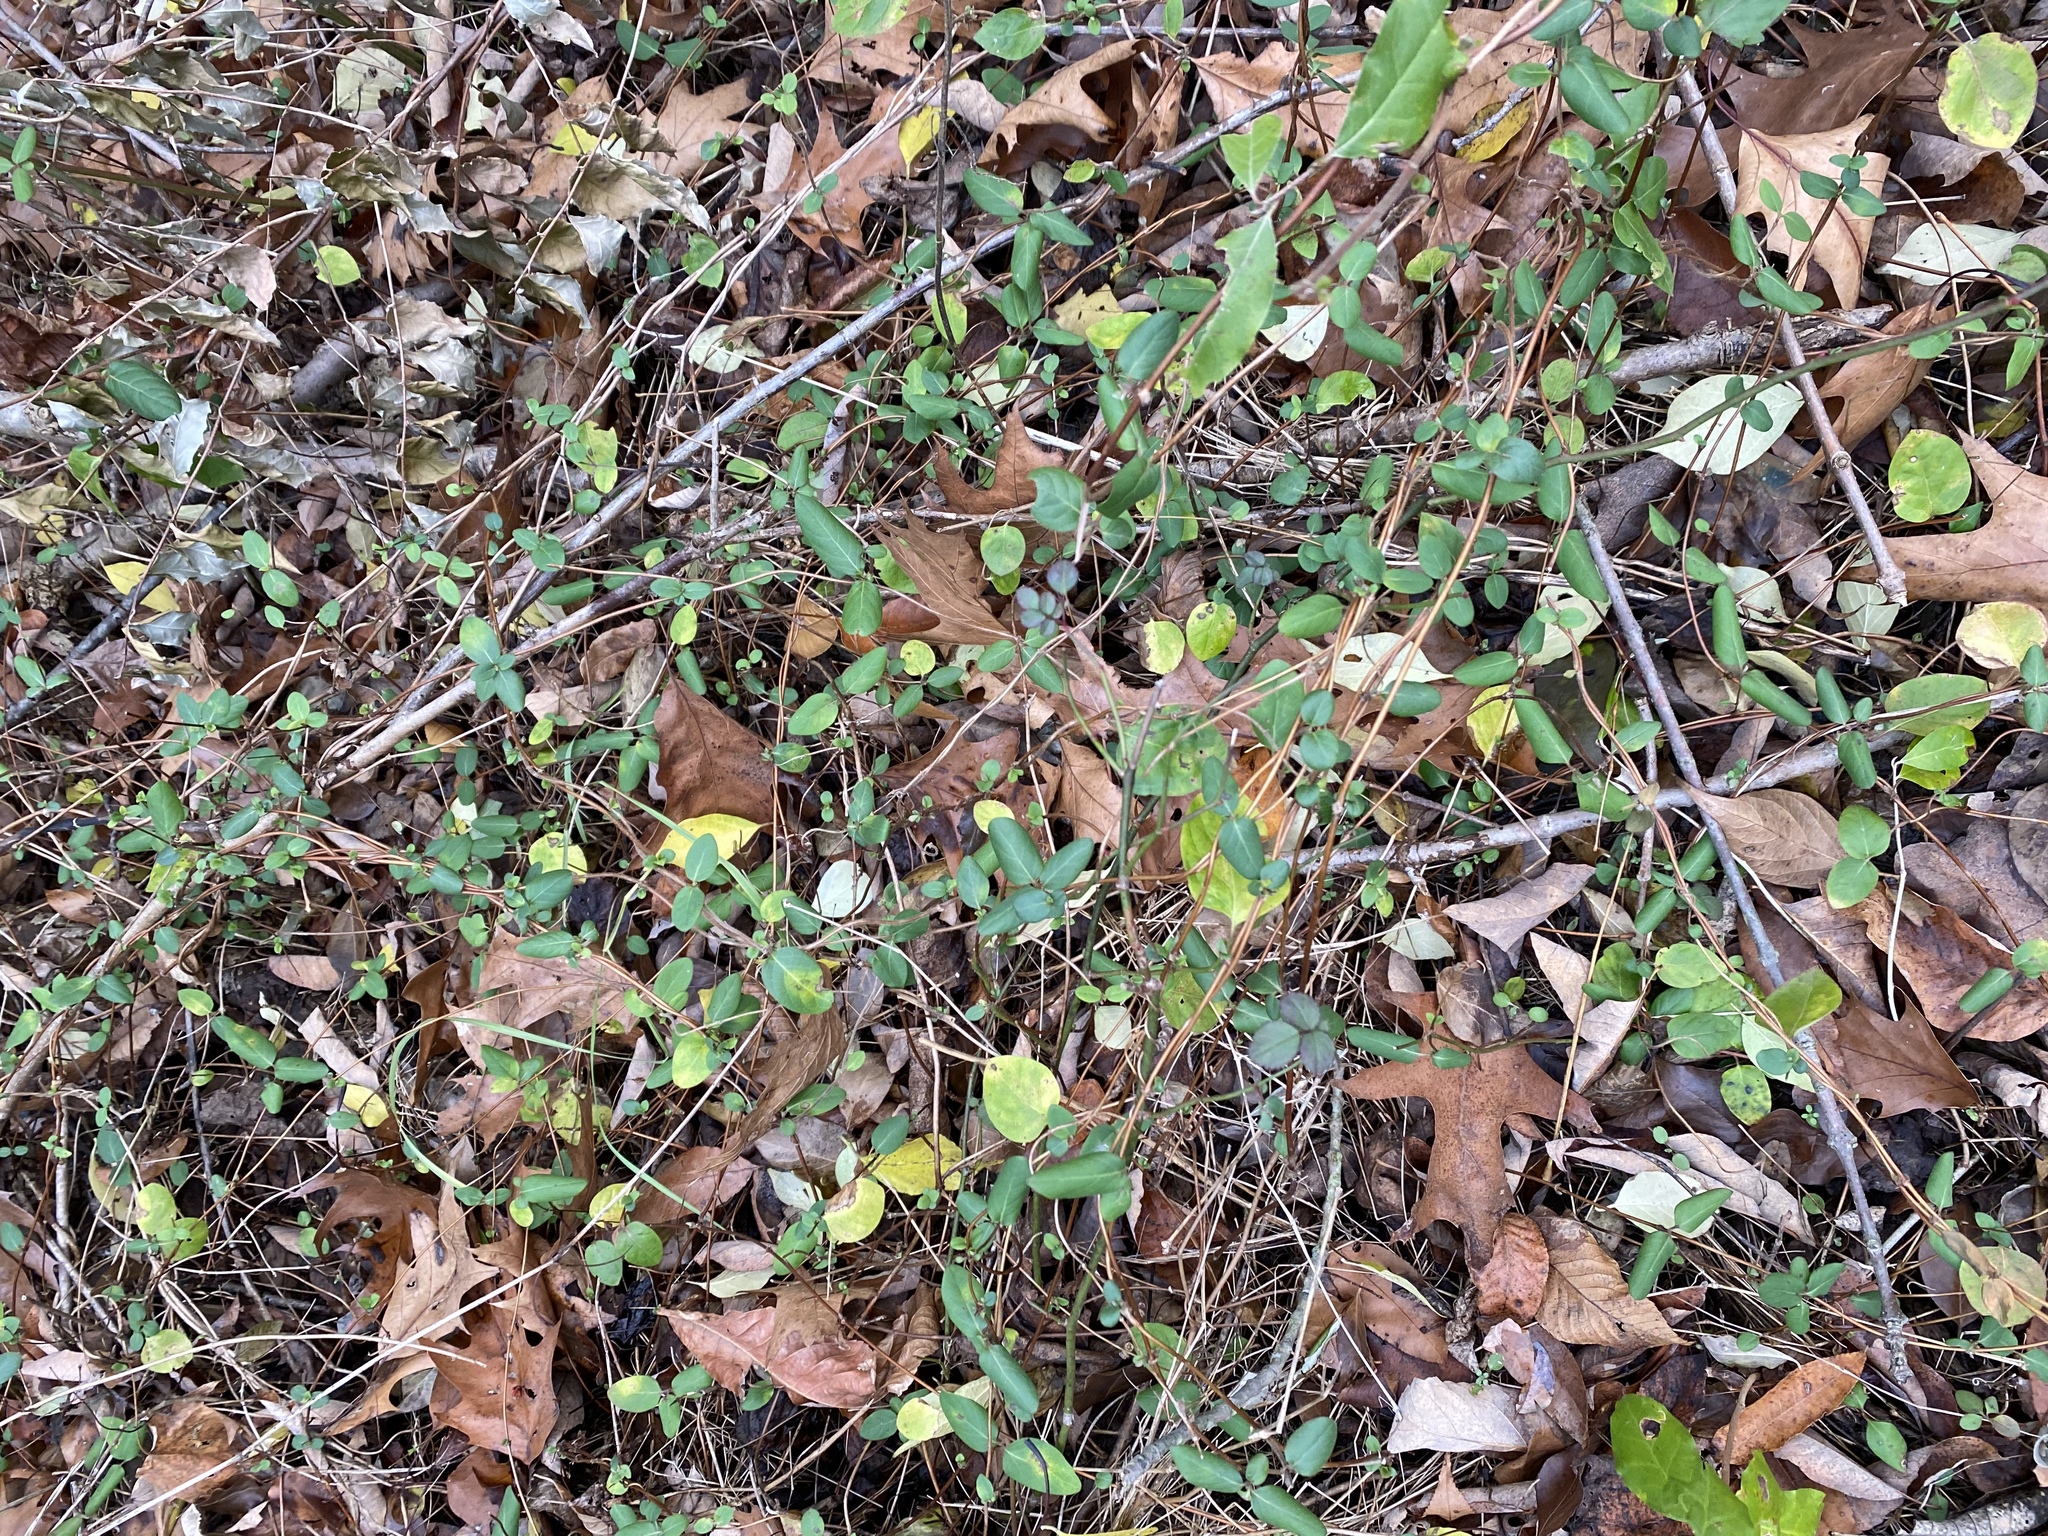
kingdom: Plantae
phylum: Tracheophyta
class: Magnoliopsida
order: Dipsacales
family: Caprifoliaceae
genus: Lonicera
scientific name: Lonicera japonica
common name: Japanese honeysuckle
